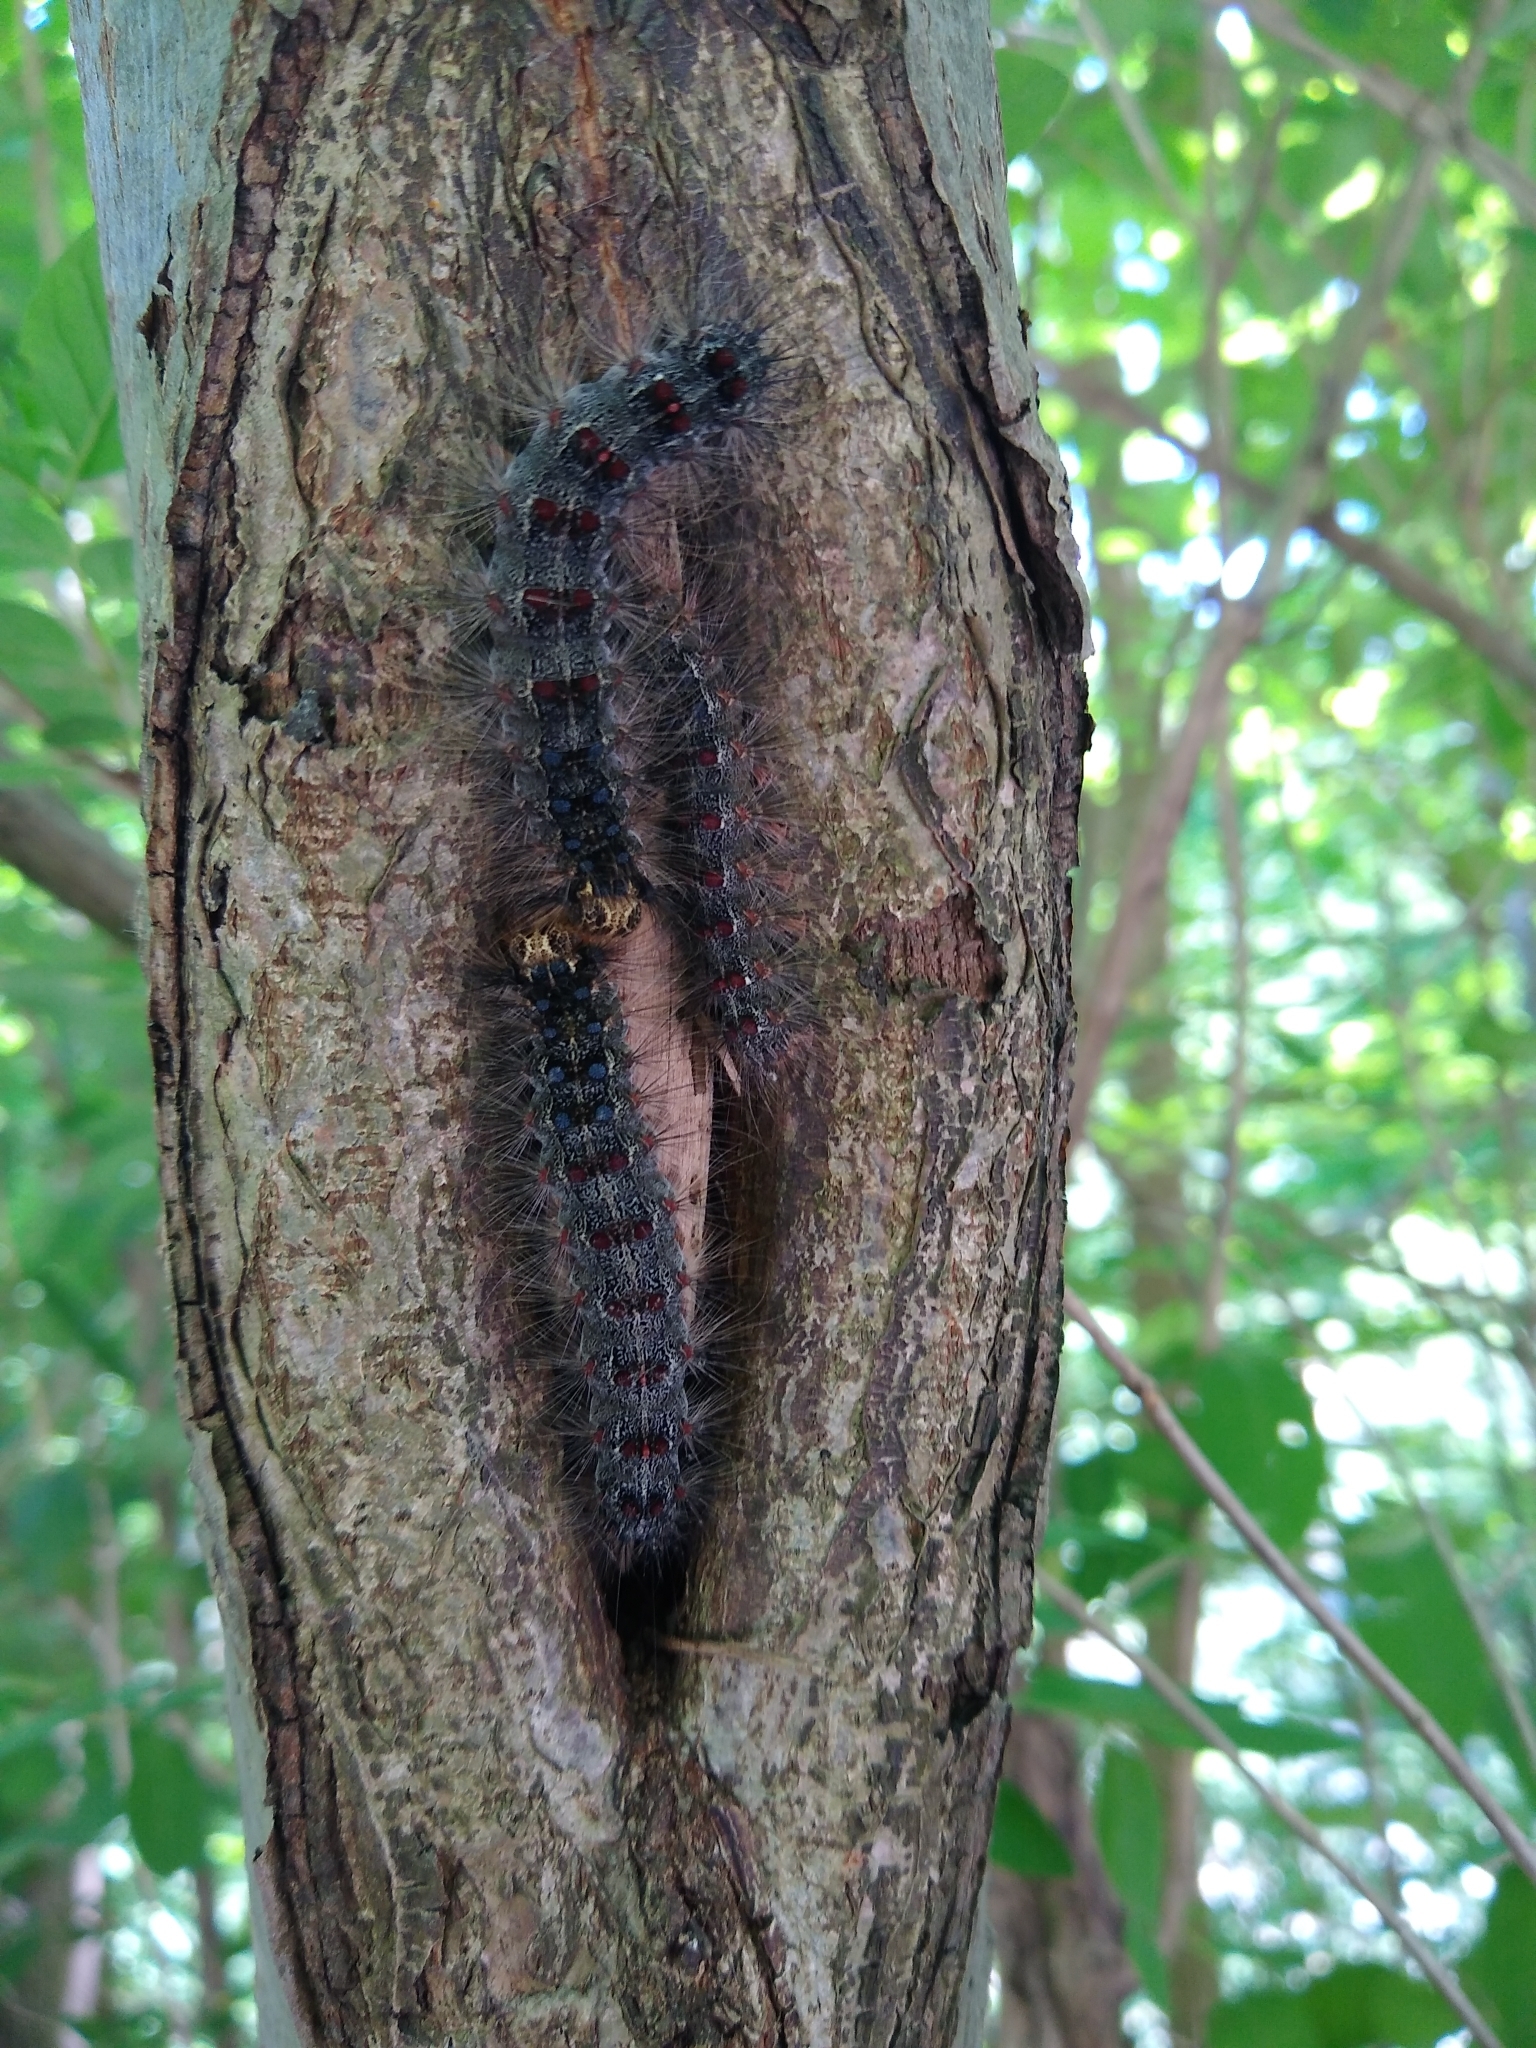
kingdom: Animalia
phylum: Arthropoda
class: Insecta
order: Lepidoptera
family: Erebidae
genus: Lymantria
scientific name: Lymantria dispar
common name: Gypsy moth
